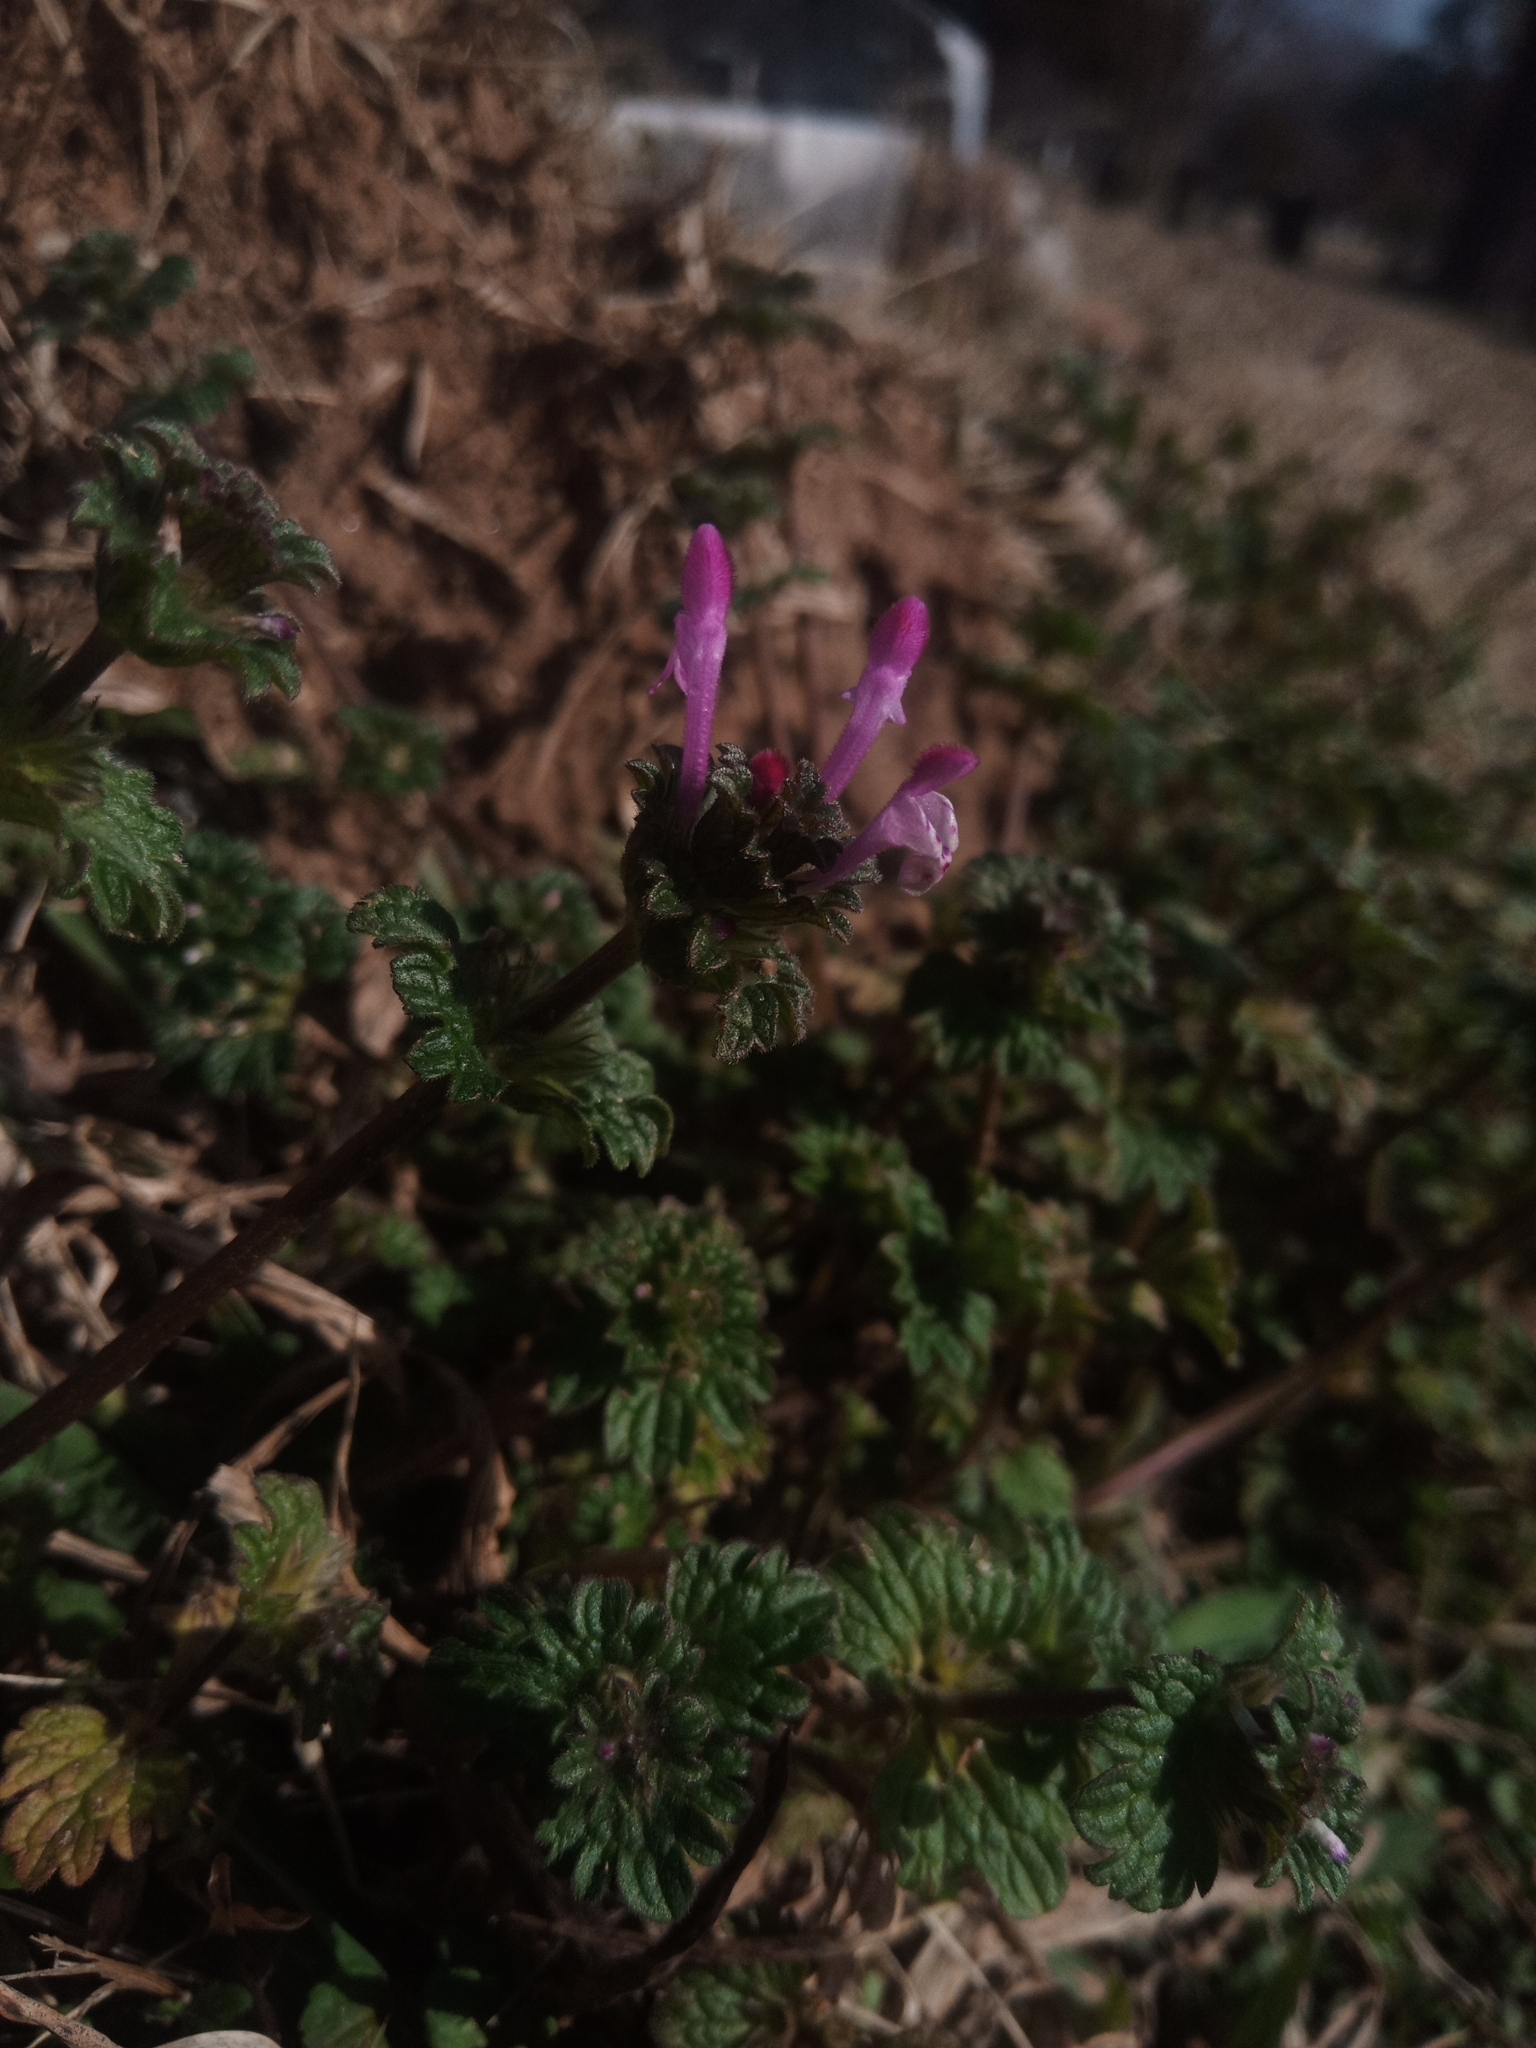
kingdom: Plantae
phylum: Tracheophyta
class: Magnoliopsida
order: Lamiales
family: Lamiaceae
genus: Lamium
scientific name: Lamium amplexicaule
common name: Henbit dead-nettle
